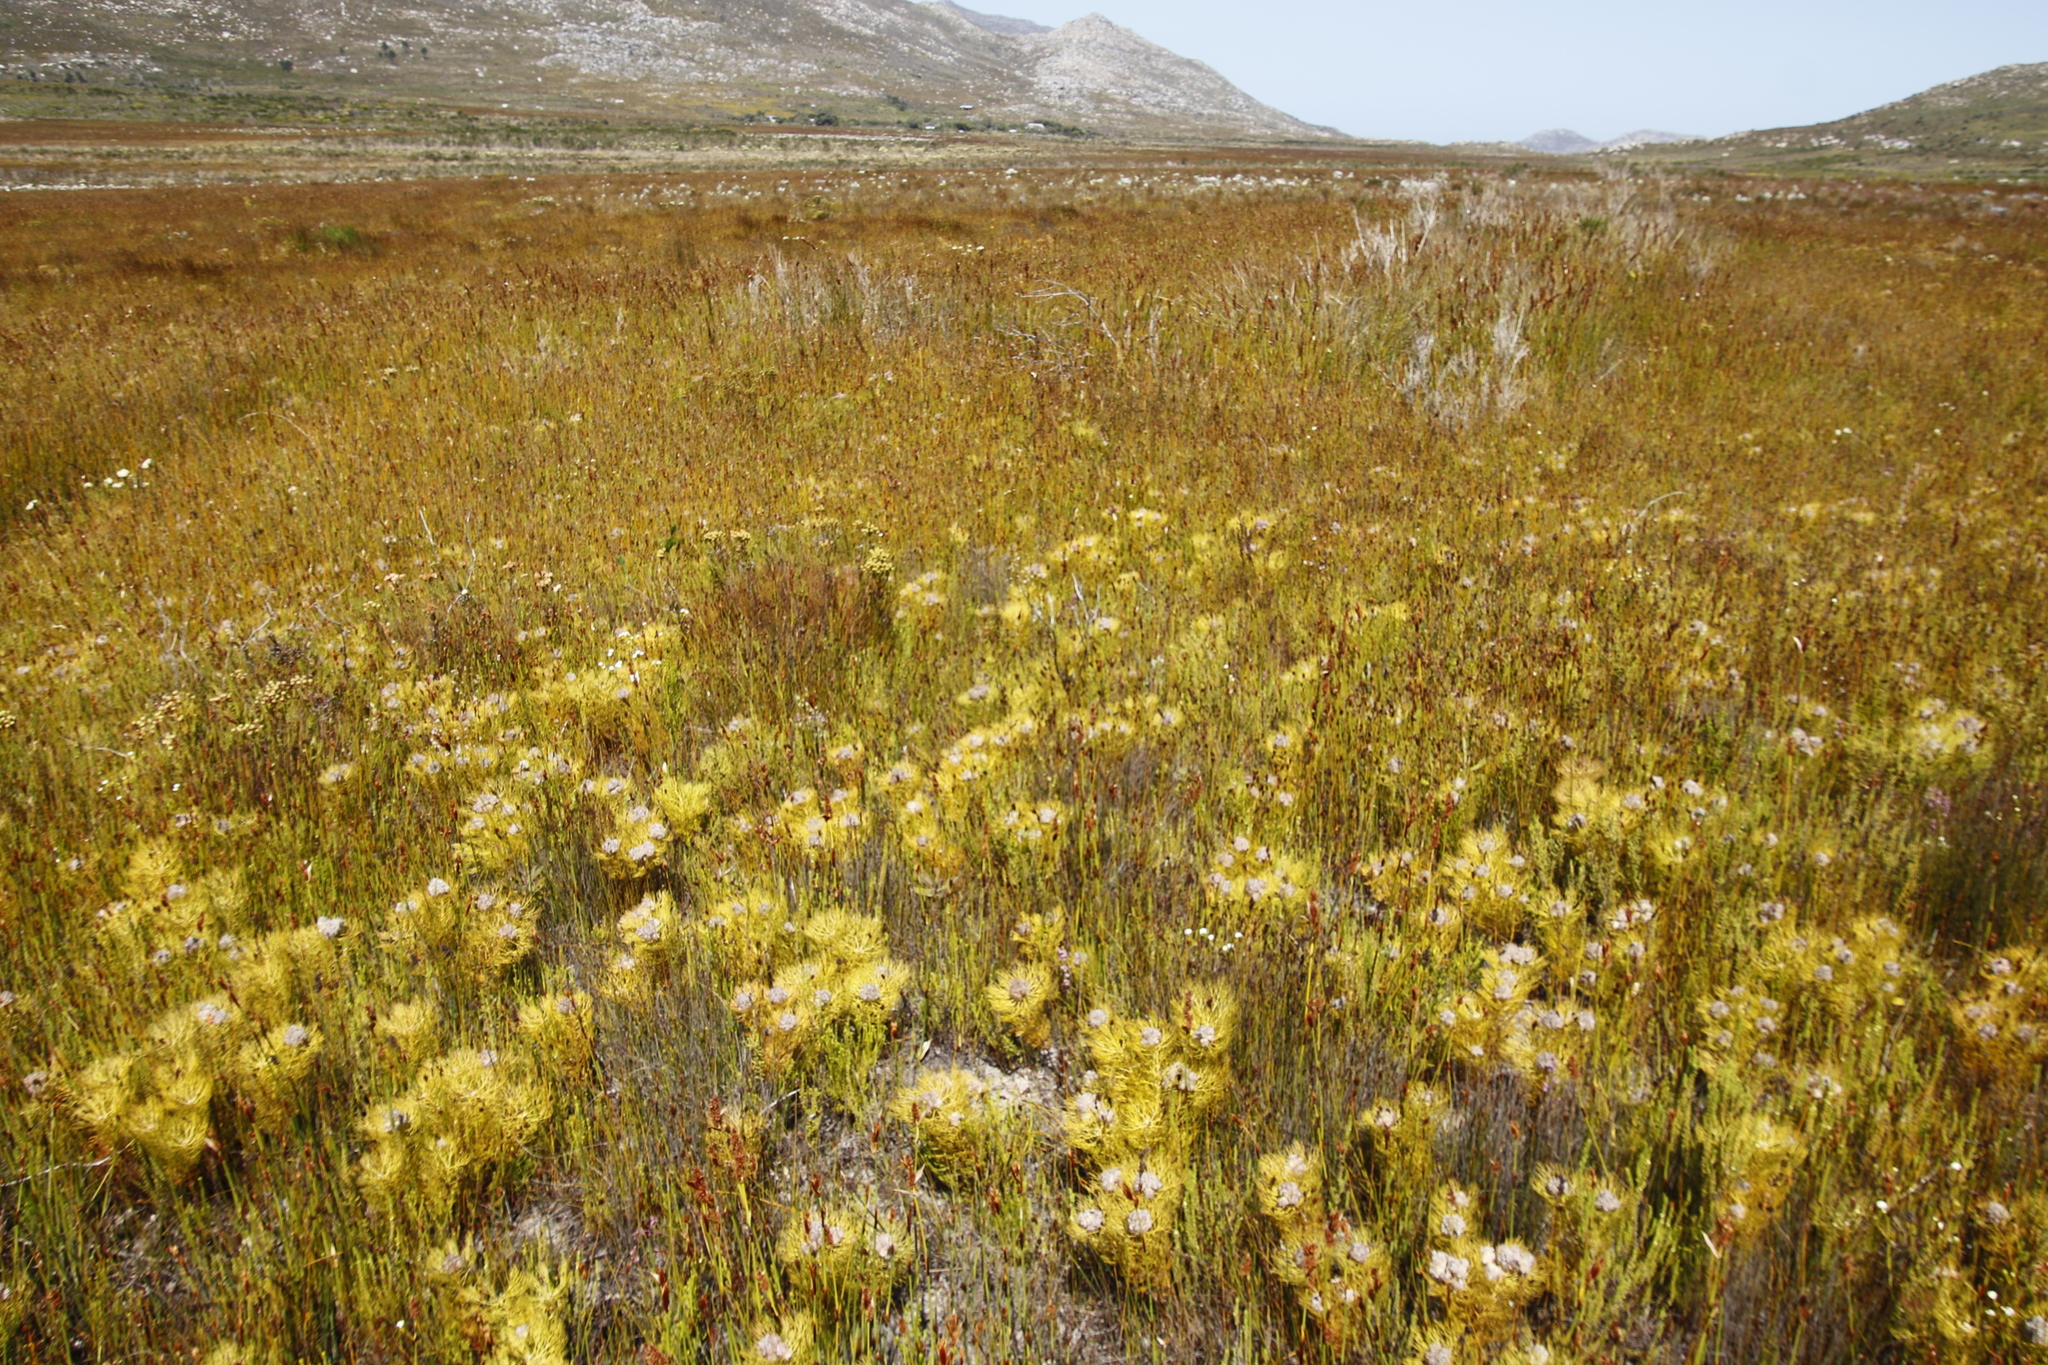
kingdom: Plantae
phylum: Tracheophyta
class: Magnoliopsida
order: Proteales
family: Proteaceae
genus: Serruria
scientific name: Serruria glomerata
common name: Cluster spiderhead
